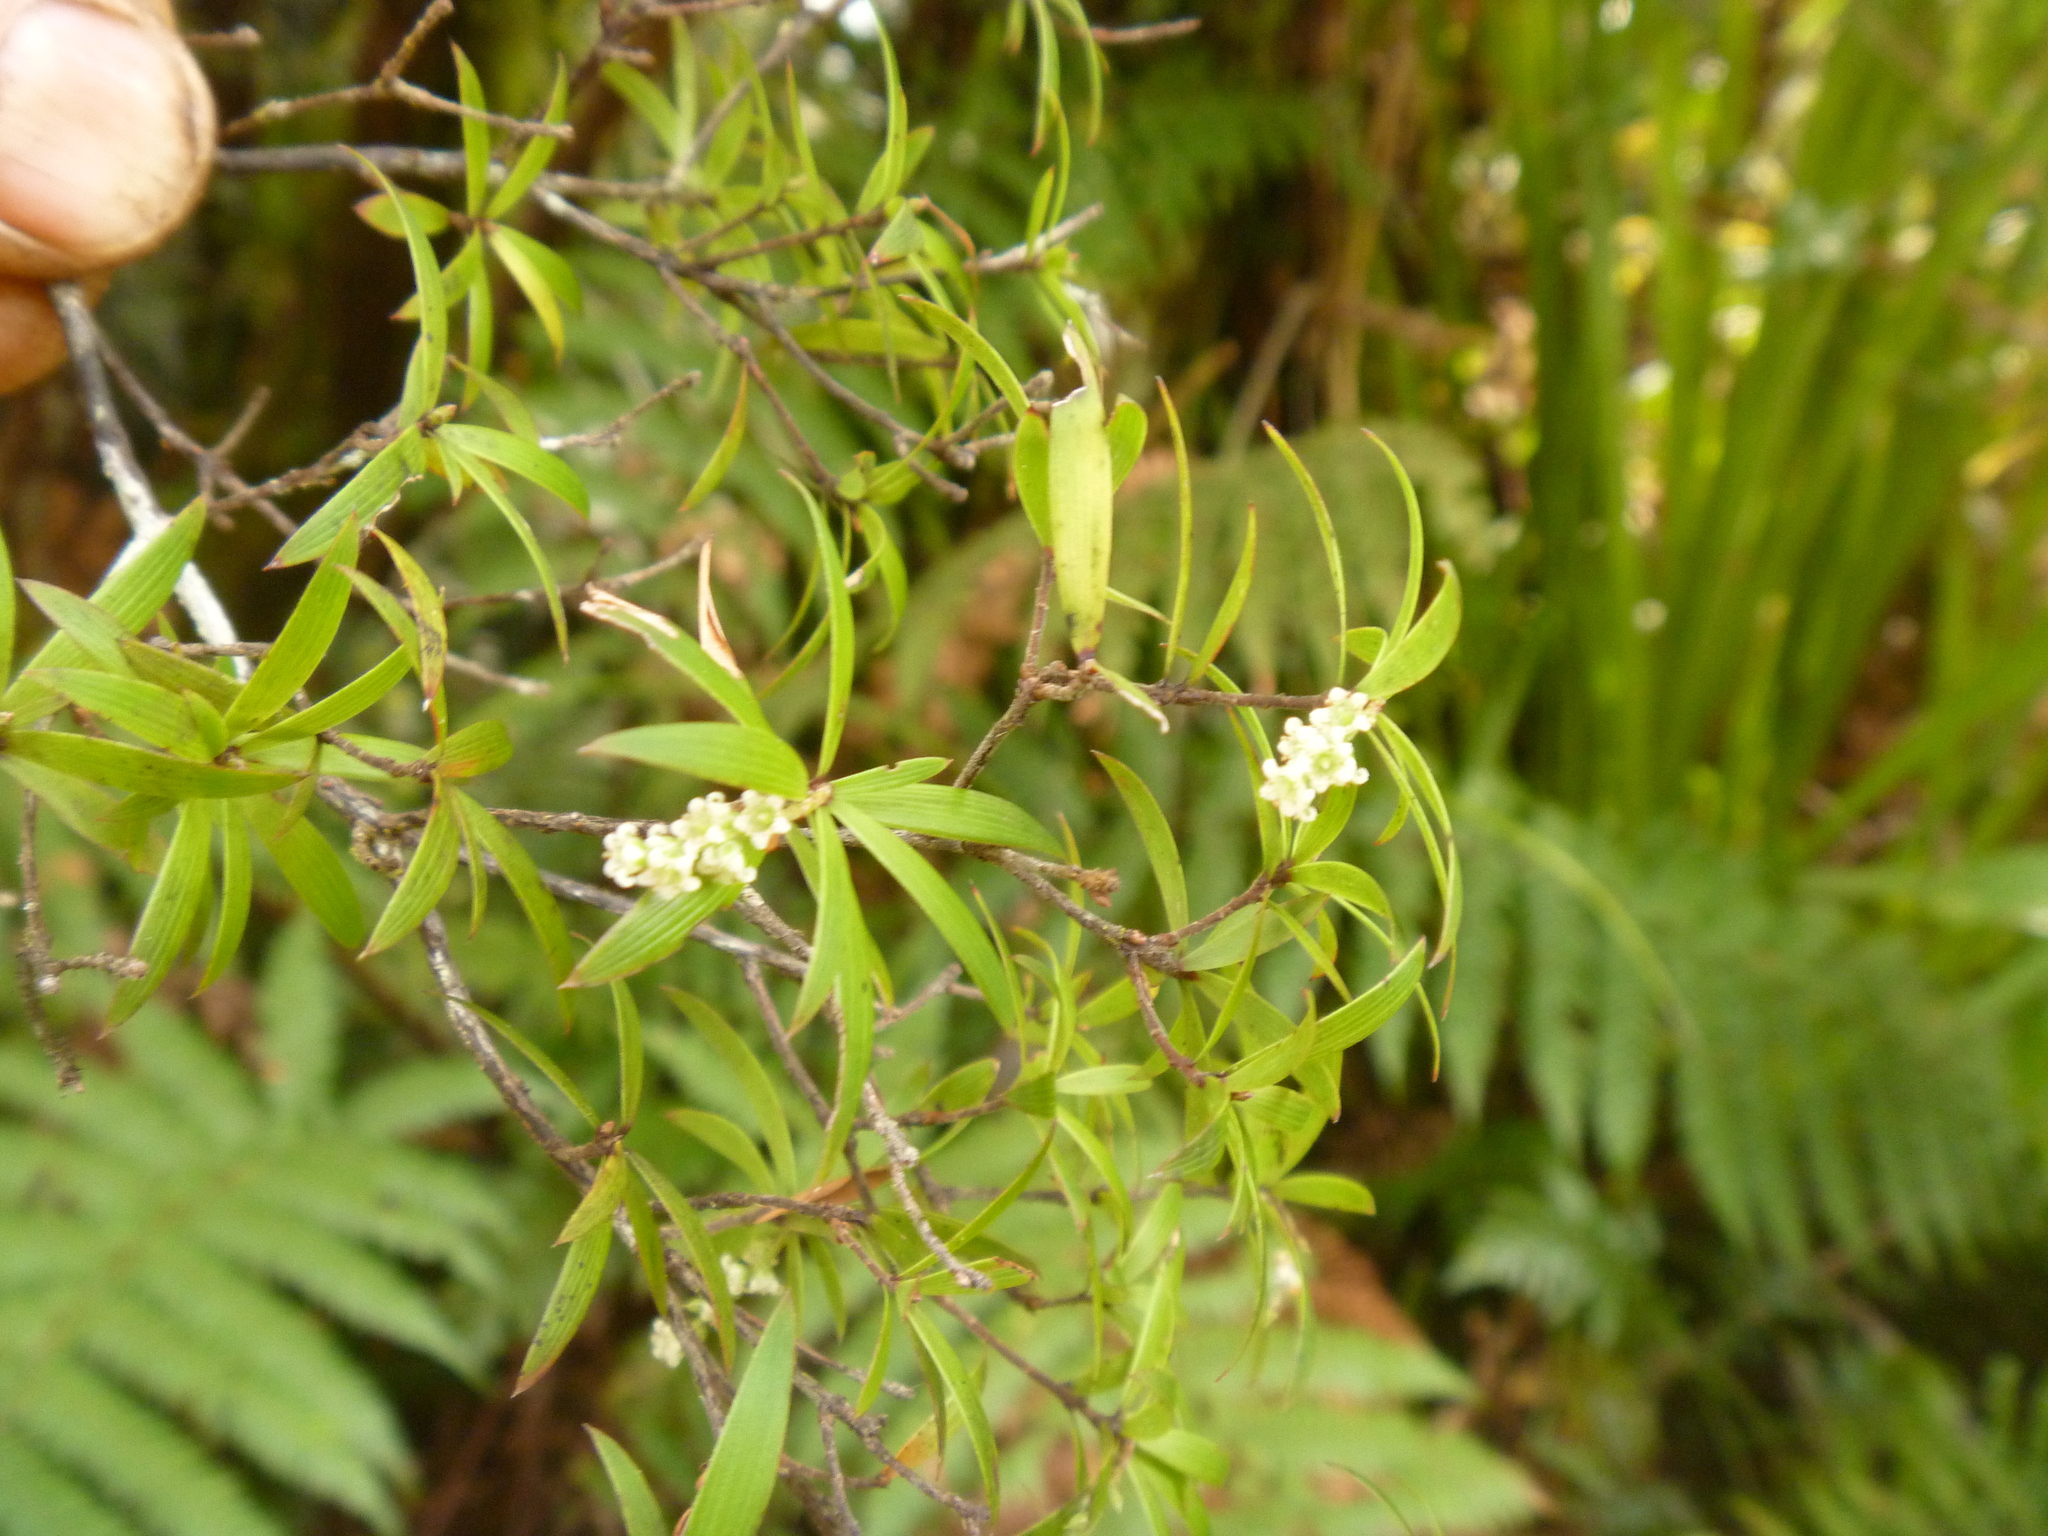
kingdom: Plantae
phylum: Tracheophyta
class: Magnoliopsida
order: Ericales
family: Ericaceae
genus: Leucopogon
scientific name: Leucopogon fasciculatus
